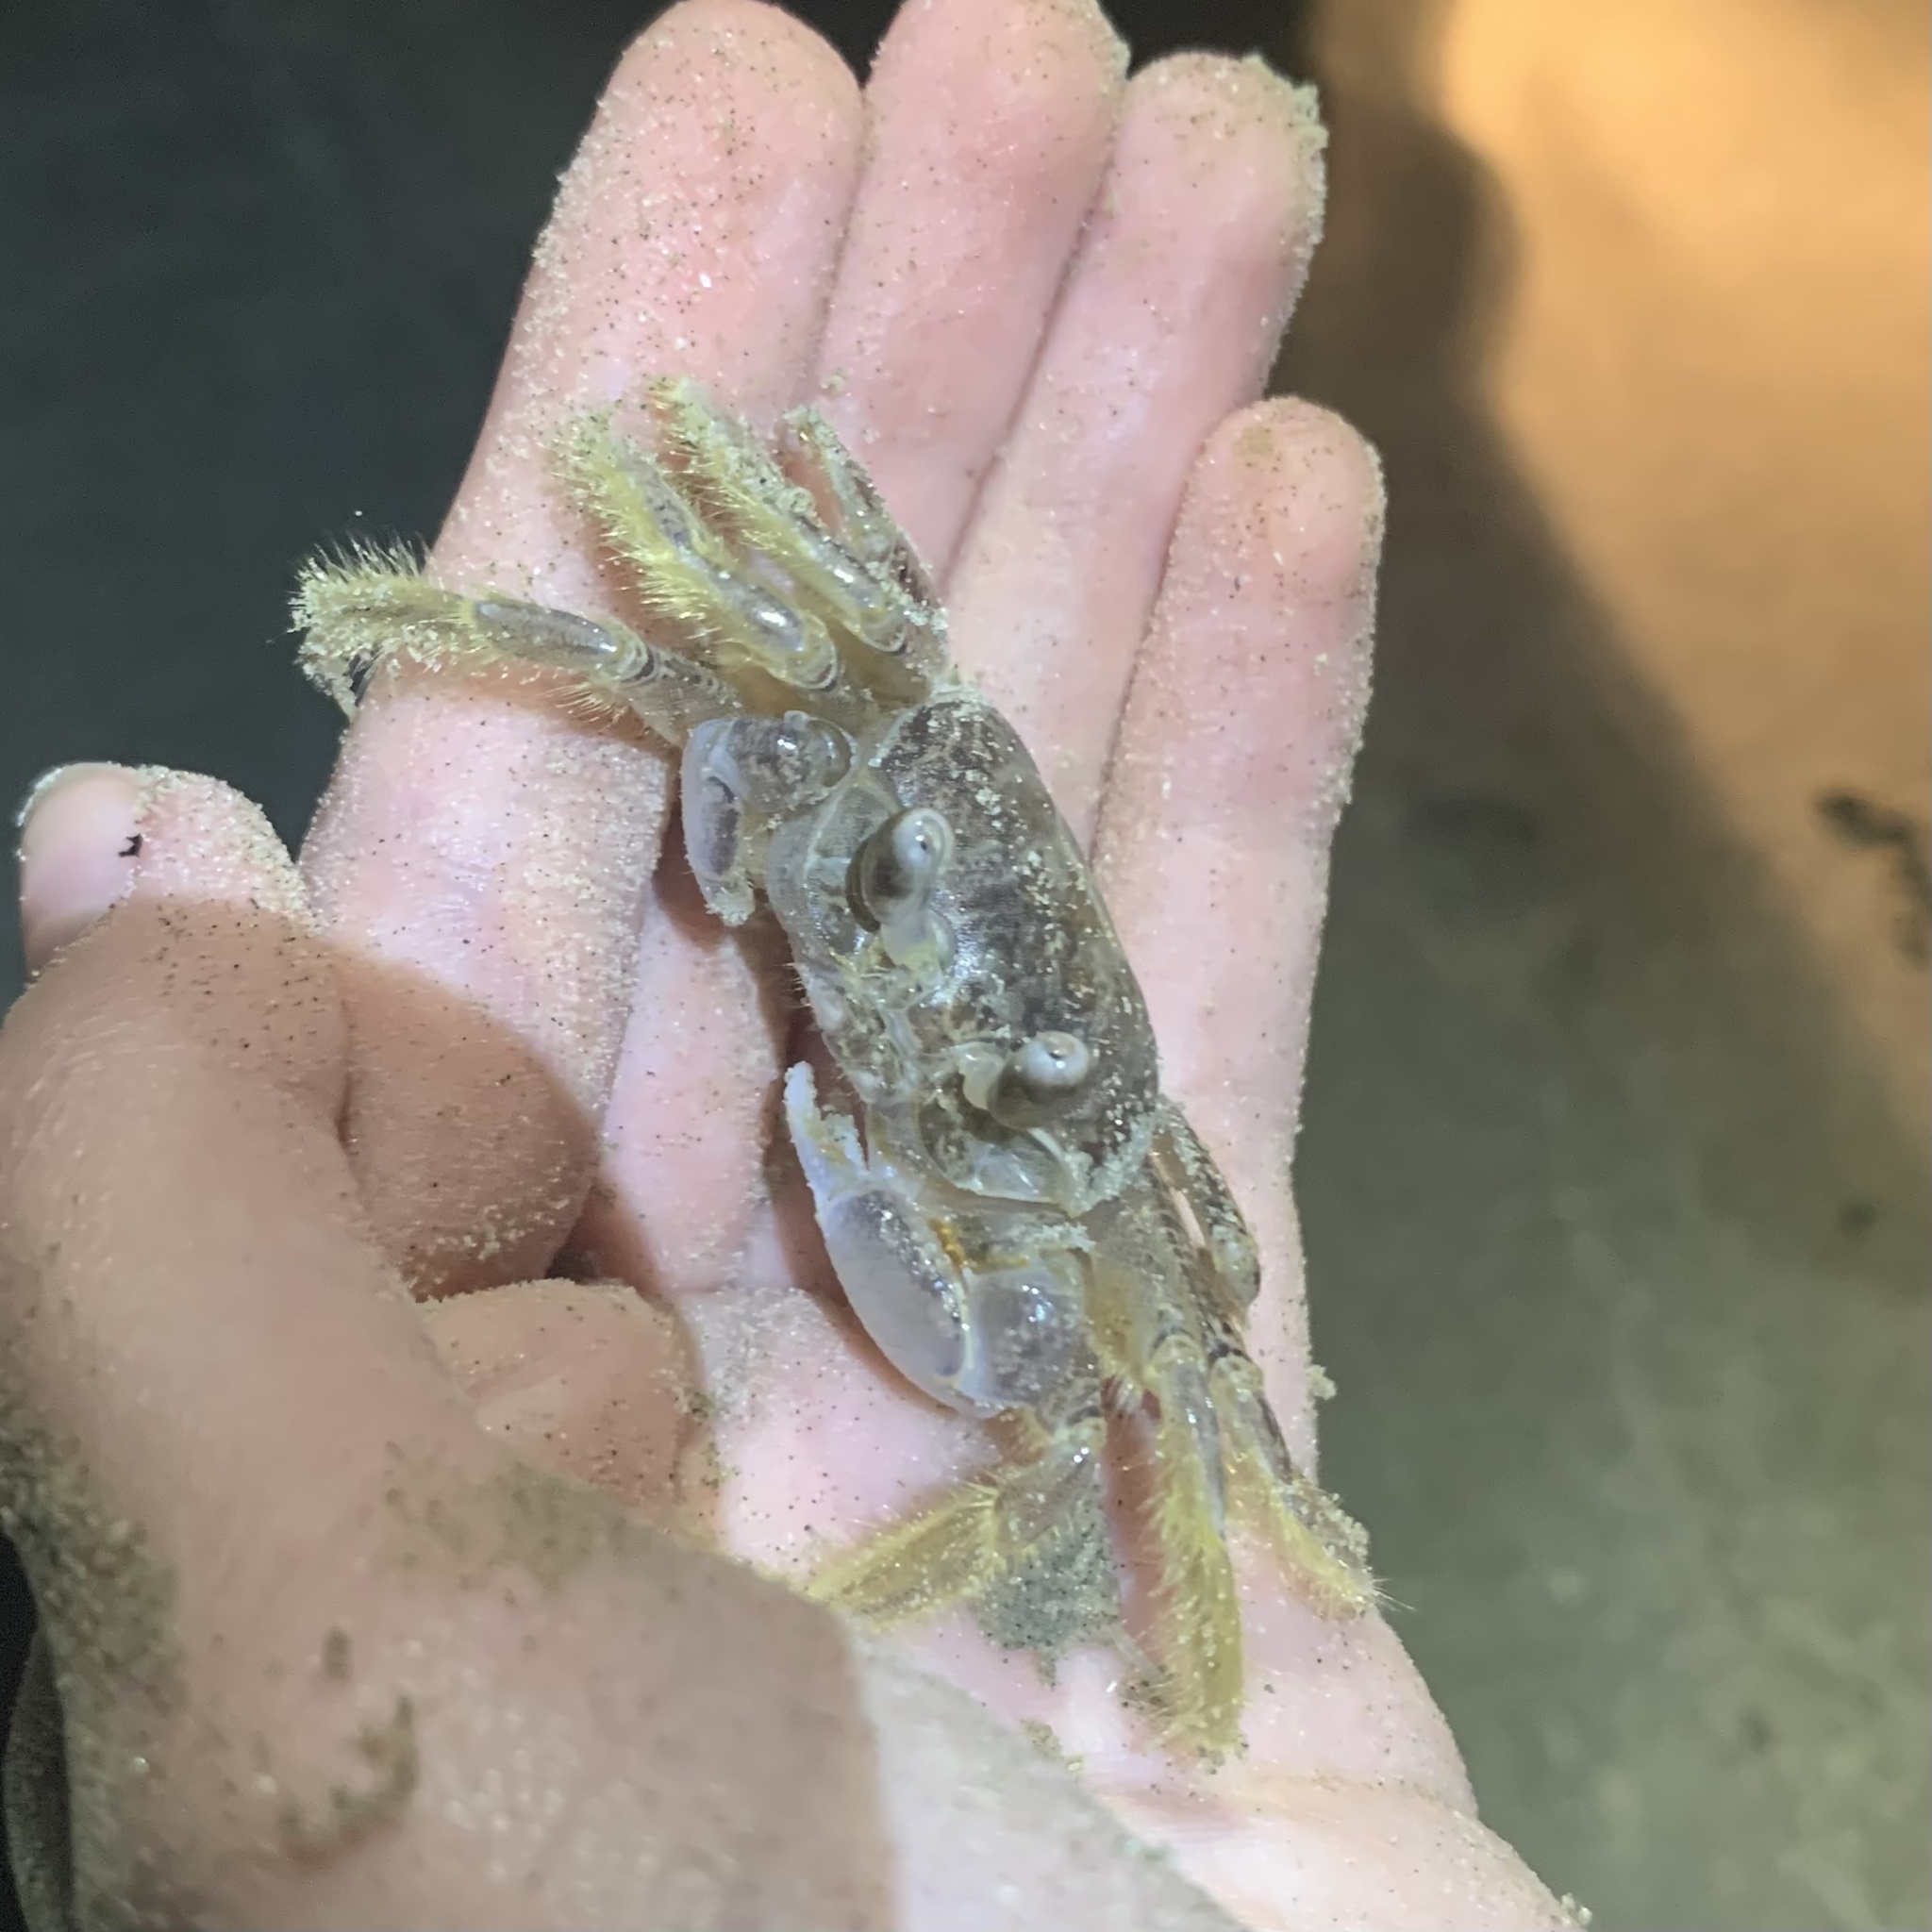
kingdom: Animalia
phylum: Arthropoda
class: Malacostraca
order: Decapoda
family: Ocypodidae
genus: Ocypode
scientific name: Ocypode quadrata
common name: Ghost crab
